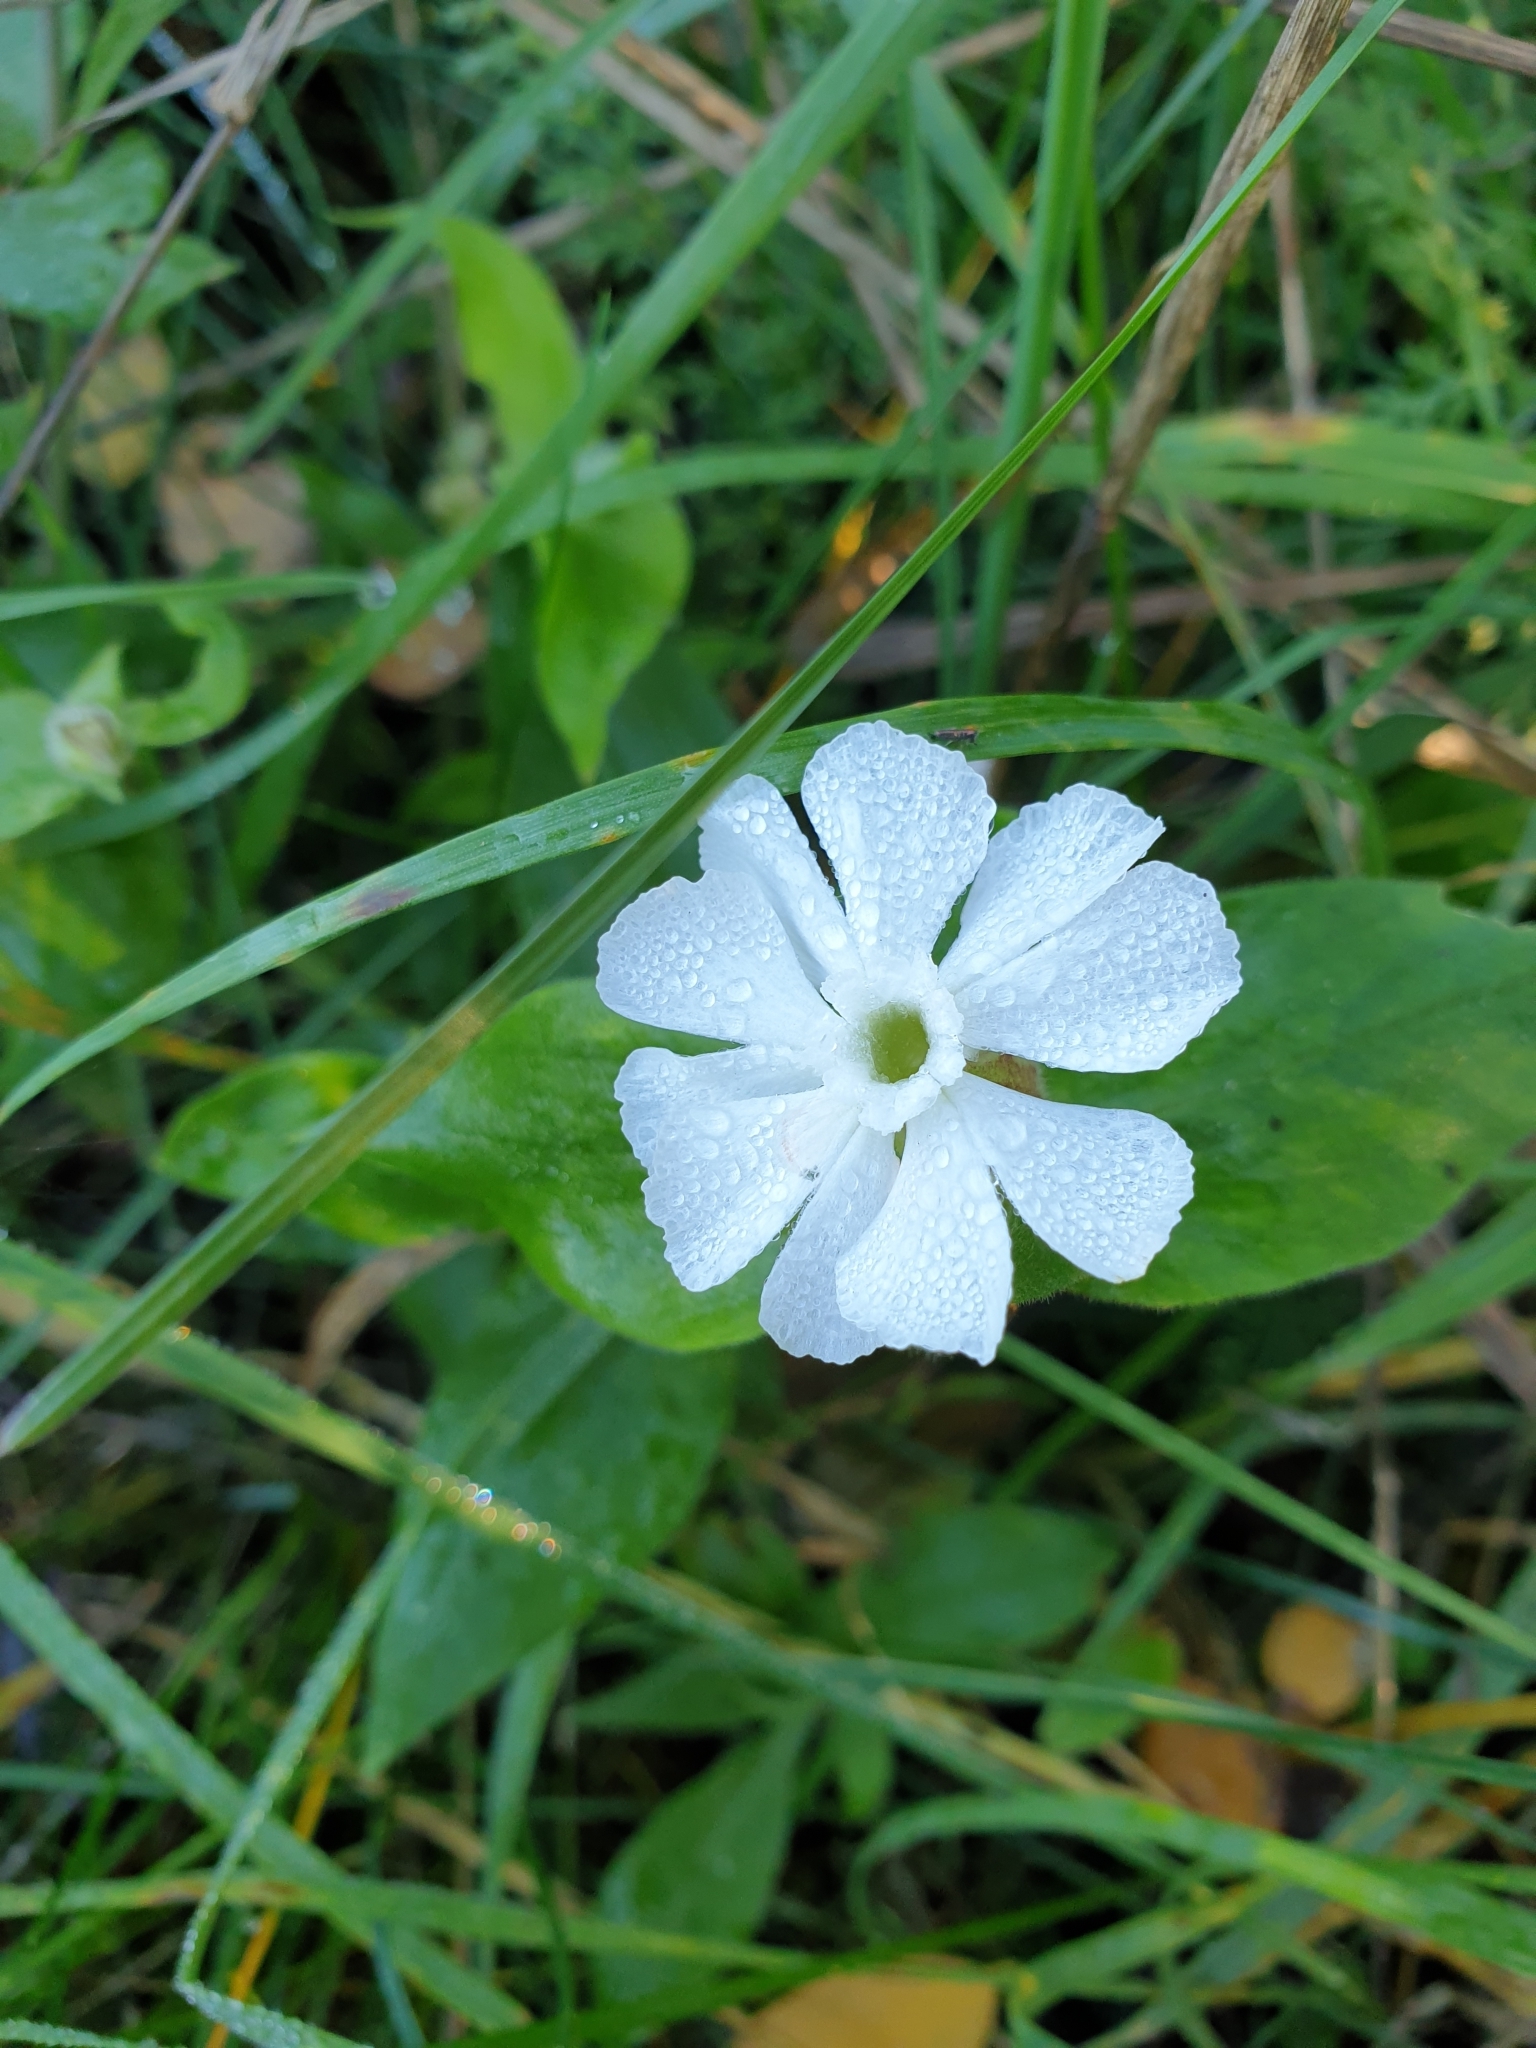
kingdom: Plantae
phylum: Tracheophyta
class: Magnoliopsida
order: Caryophyllales
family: Caryophyllaceae
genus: Silene
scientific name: Silene latifolia
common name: White campion
